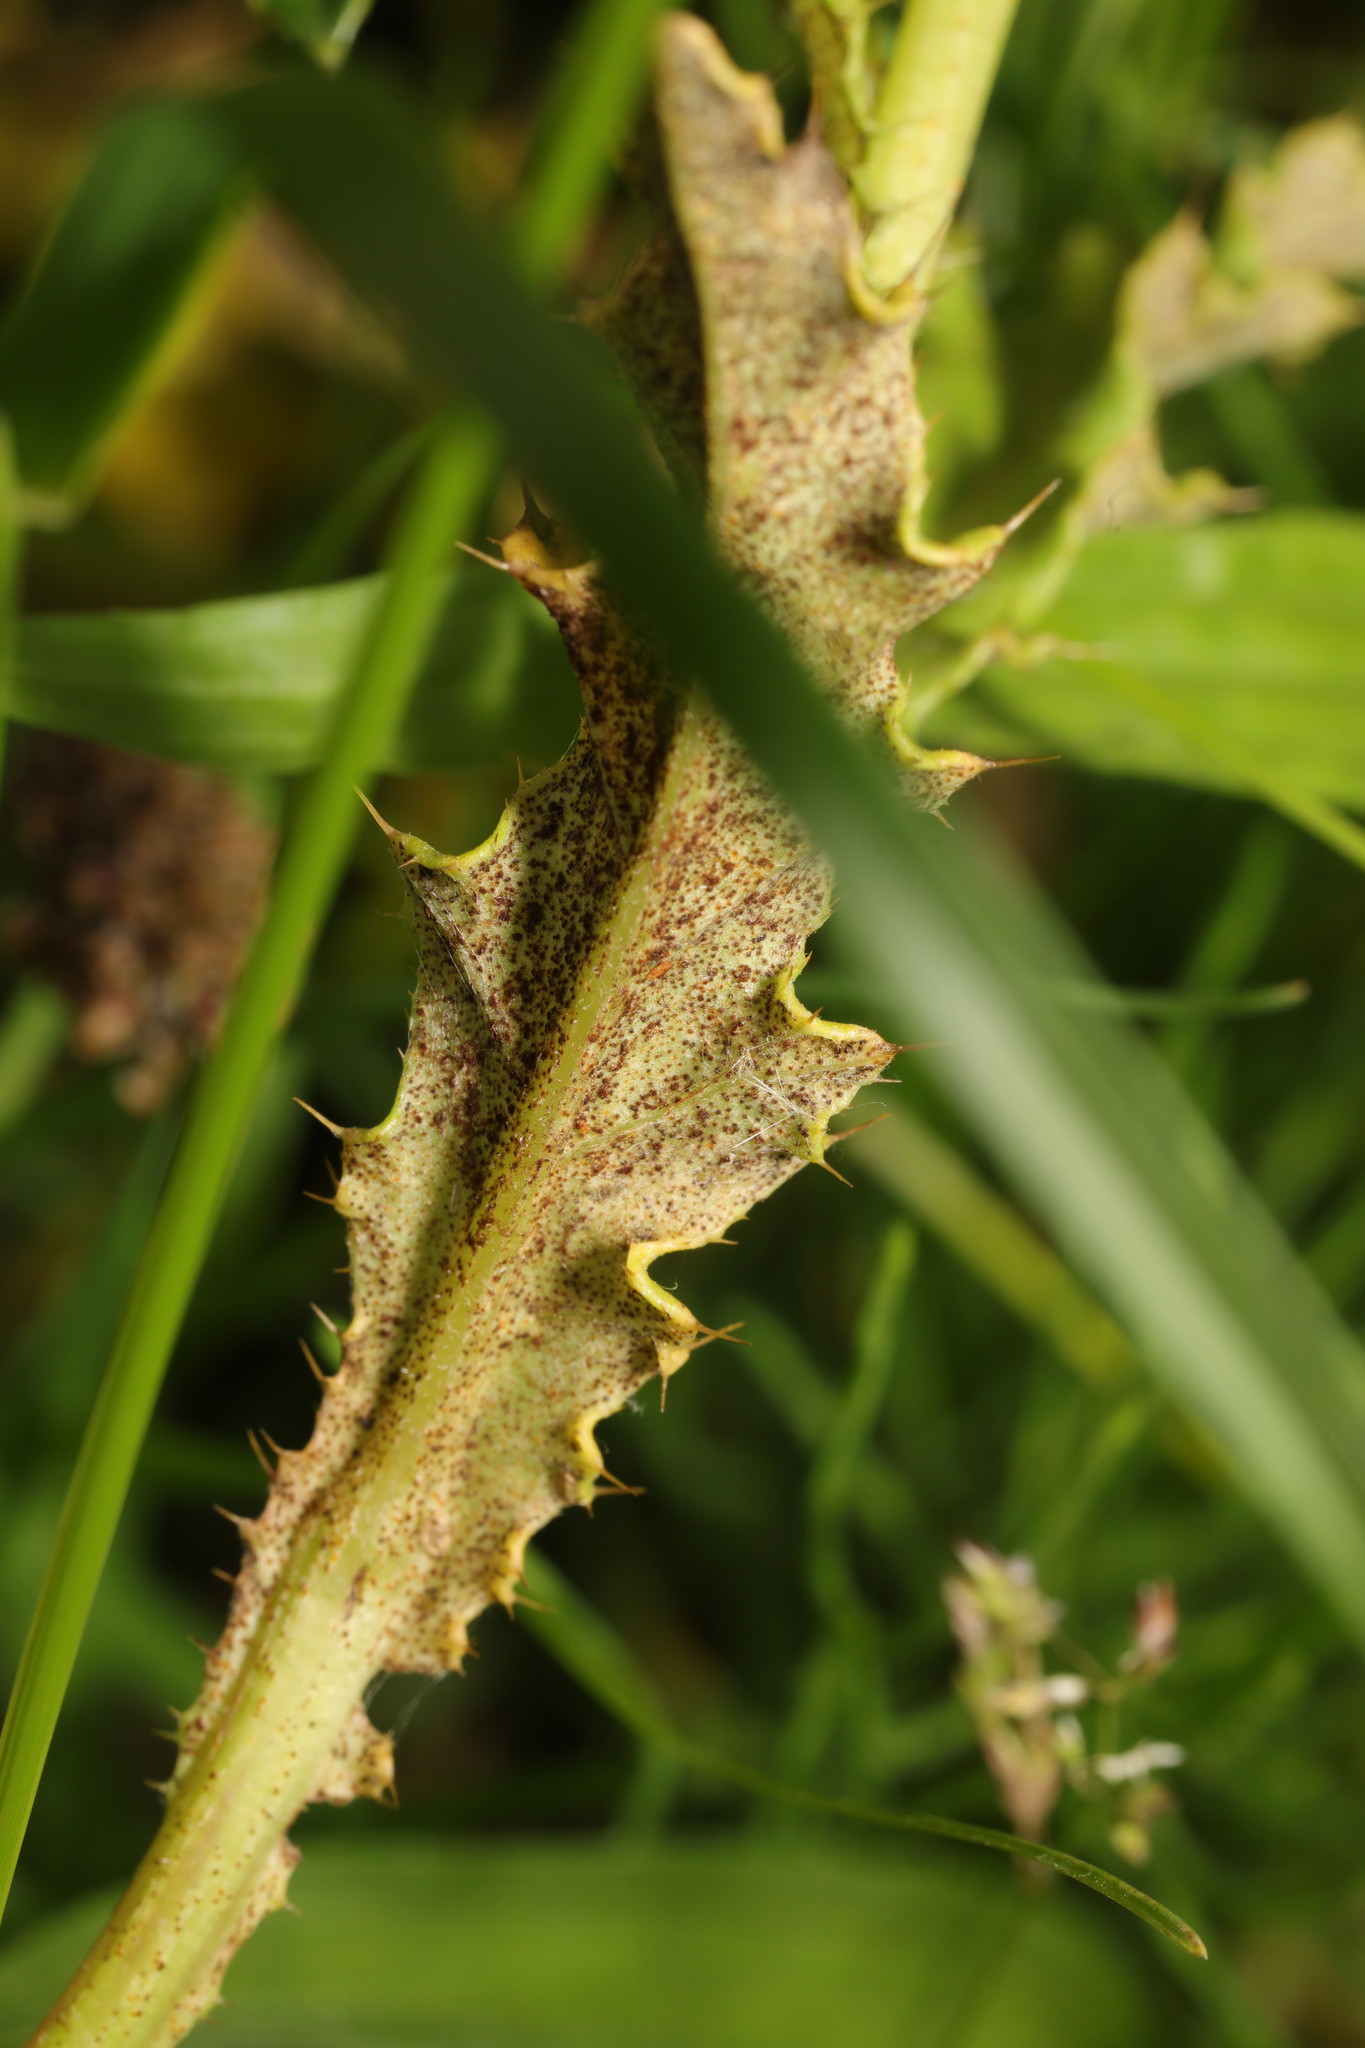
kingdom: Fungi
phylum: Basidiomycota
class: Pucciniomycetes
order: Pucciniales
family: Pucciniaceae
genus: Puccinia
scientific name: Puccinia suaveolens
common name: Thistle rust
